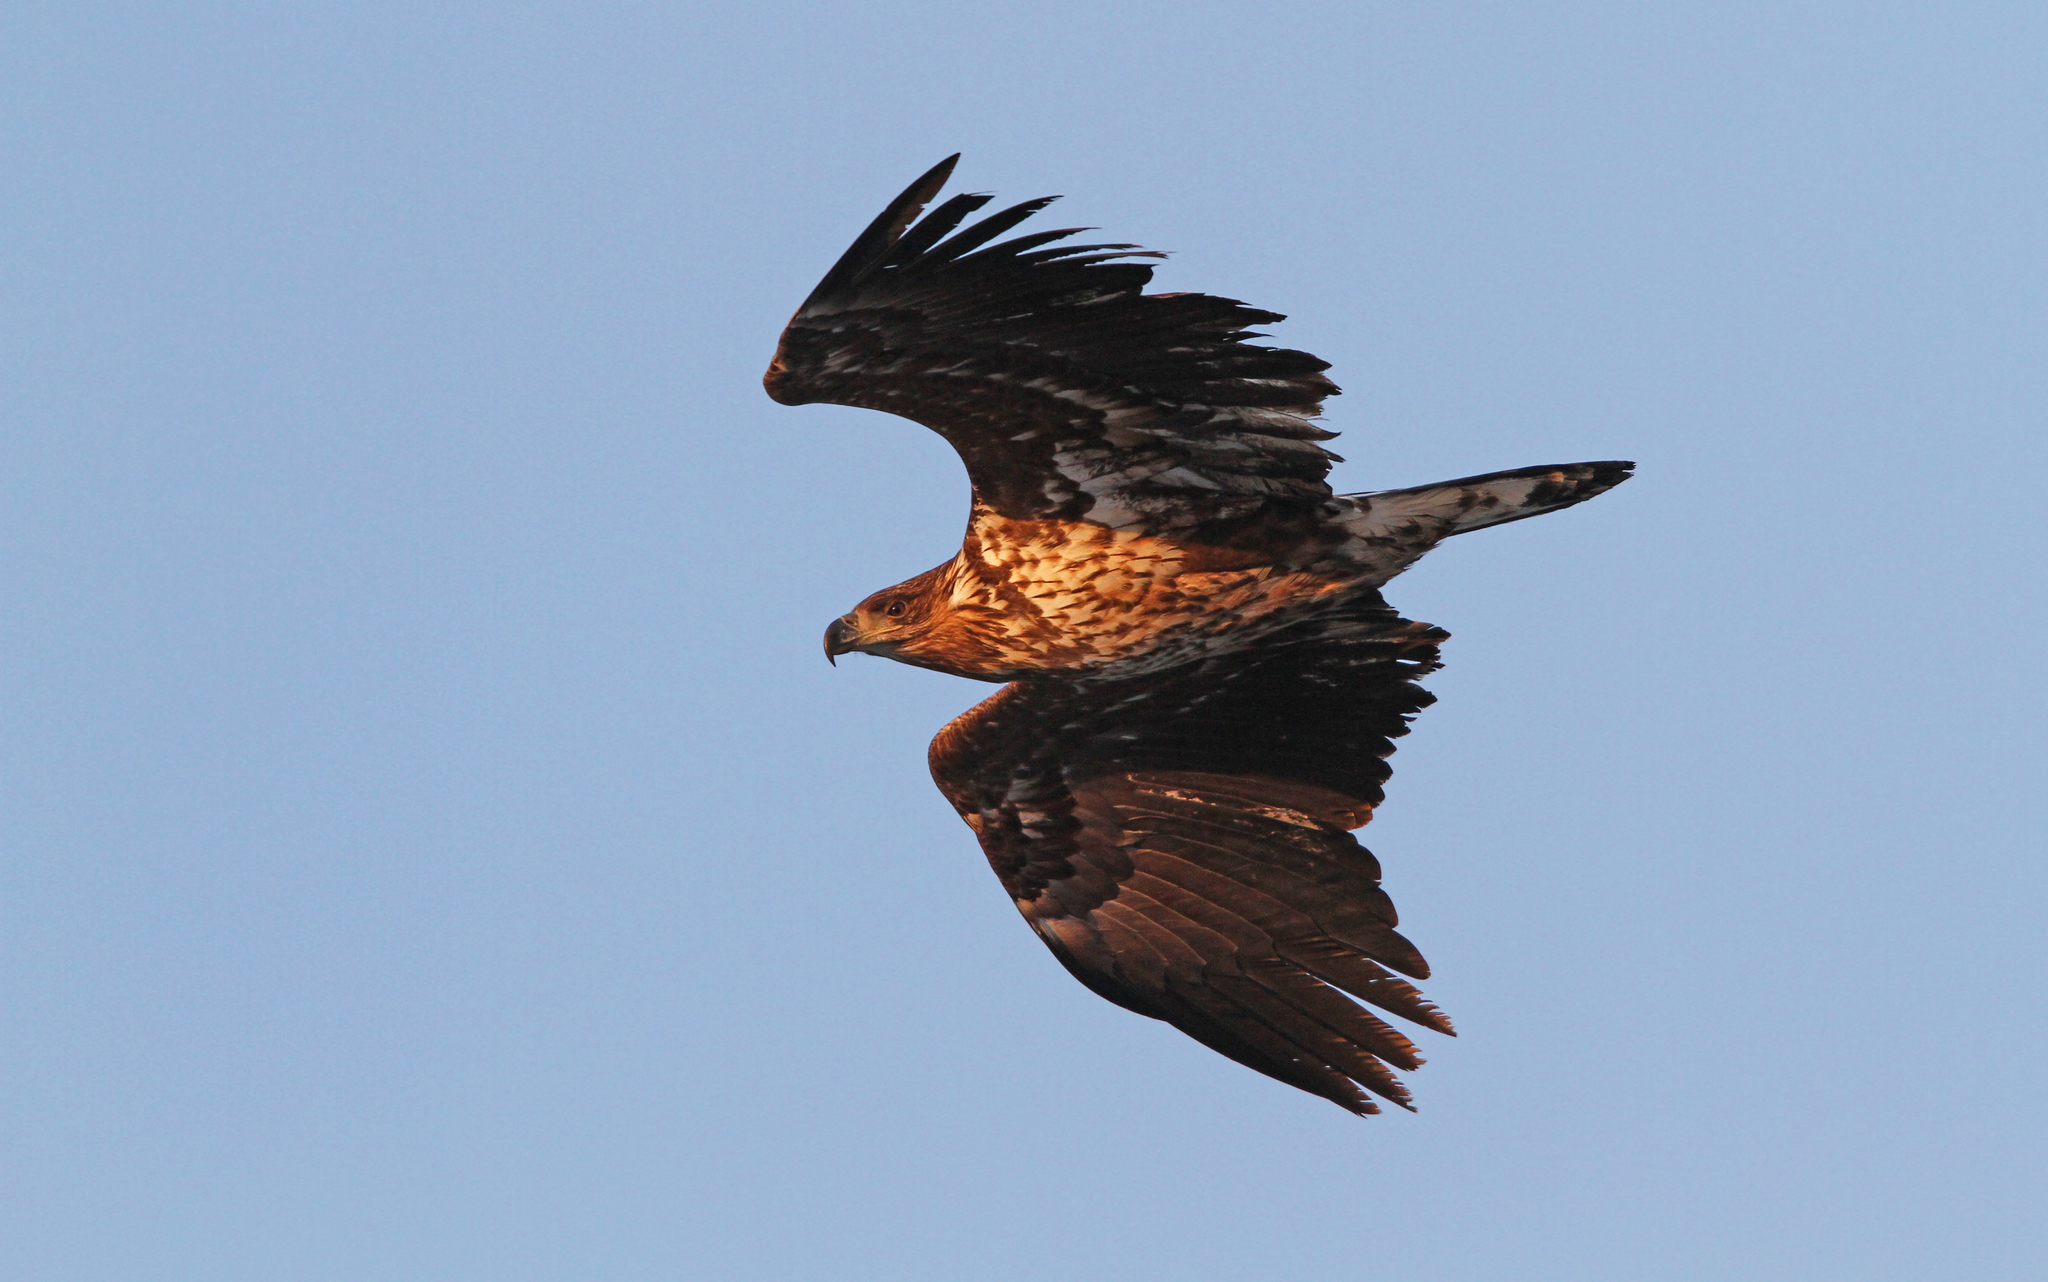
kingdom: Animalia
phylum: Chordata
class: Aves
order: Accipitriformes
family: Accipitridae
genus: Haliaeetus
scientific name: Haliaeetus albicilla
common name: White-tailed eagle
